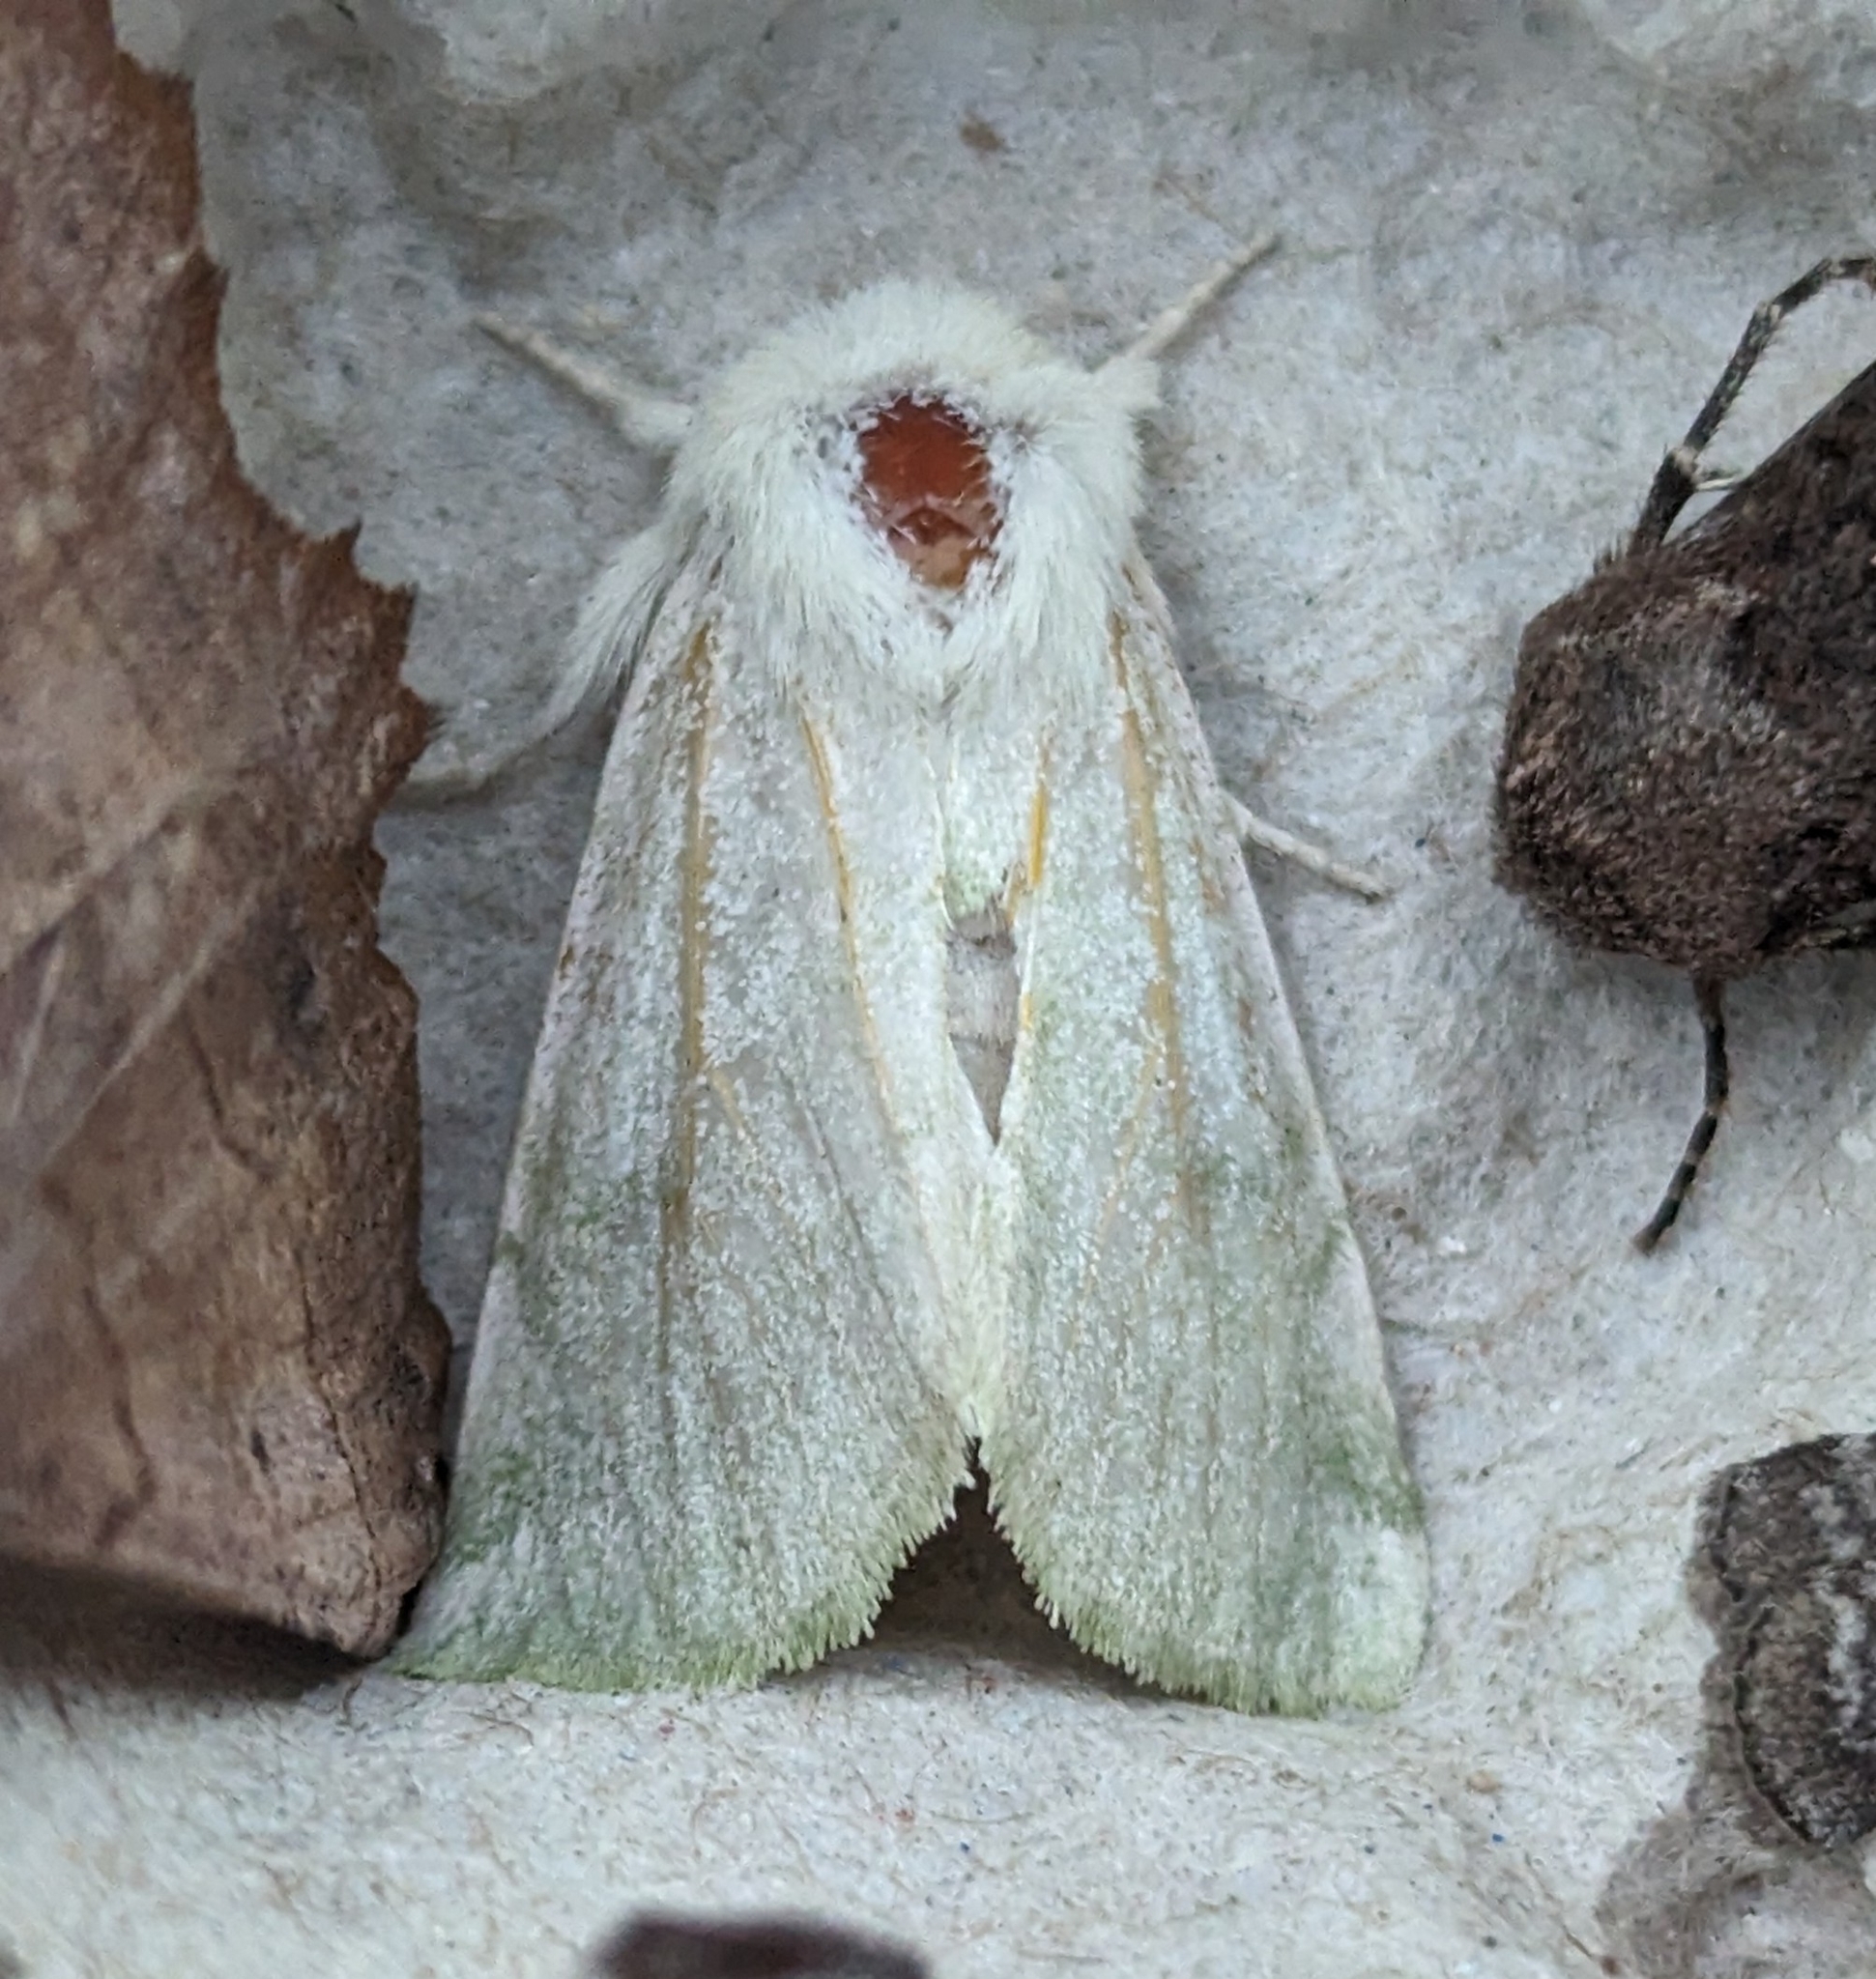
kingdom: Animalia
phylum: Arthropoda
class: Insecta
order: Lepidoptera
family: Noctuidae
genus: Zotheca
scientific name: Zotheca tranquilla
